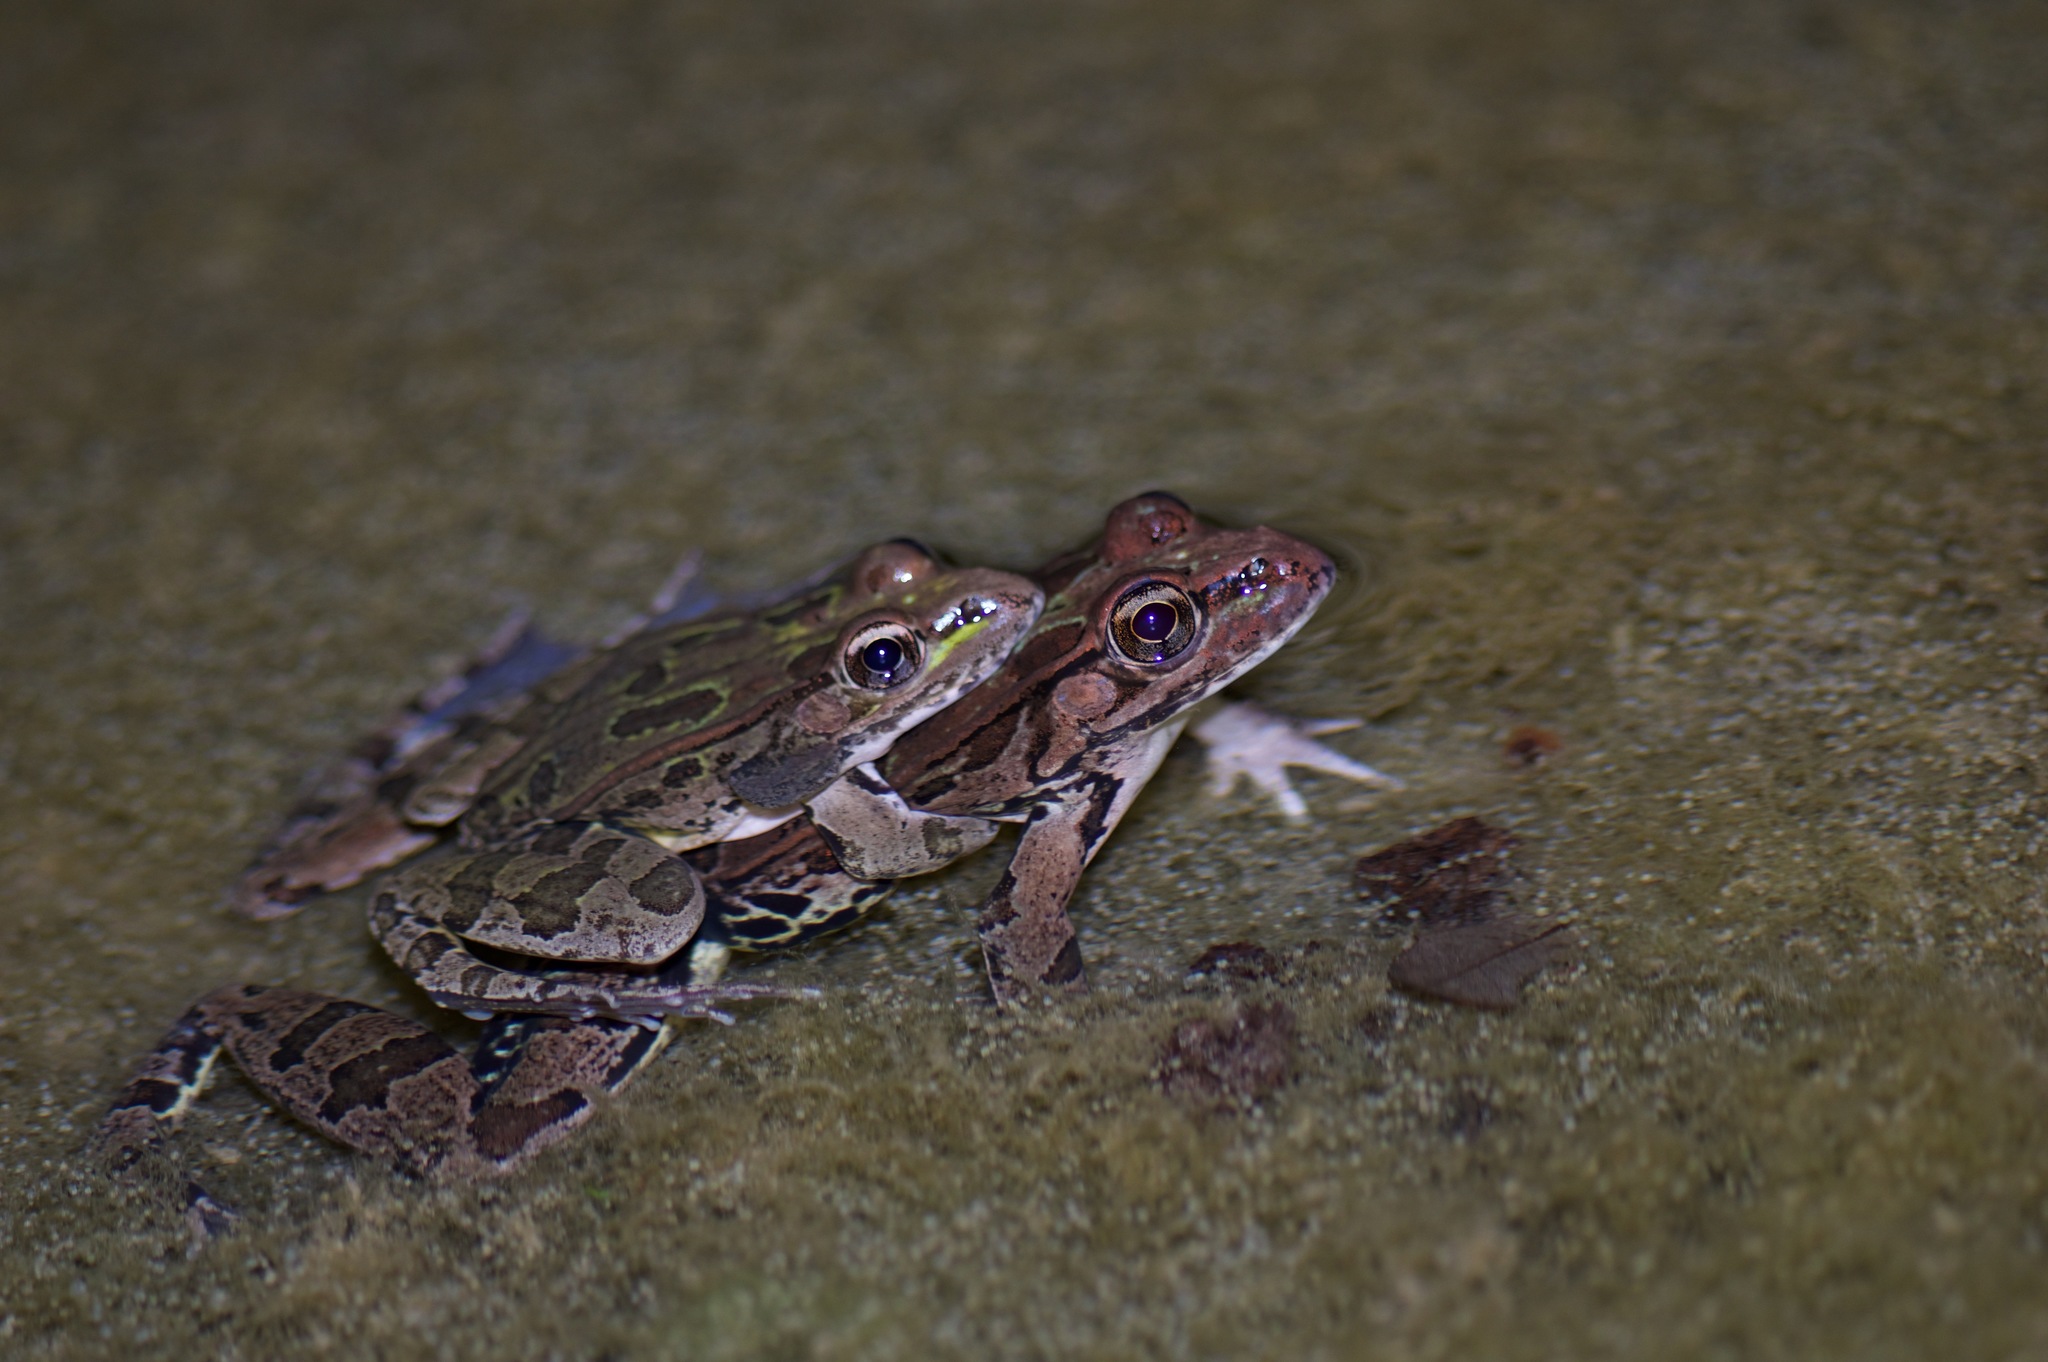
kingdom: Animalia
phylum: Chordata
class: Amphibia
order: Anura
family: Ranidae
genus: Lithobates
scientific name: Lithobates berlandieri
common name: Rio grande leopard frog
